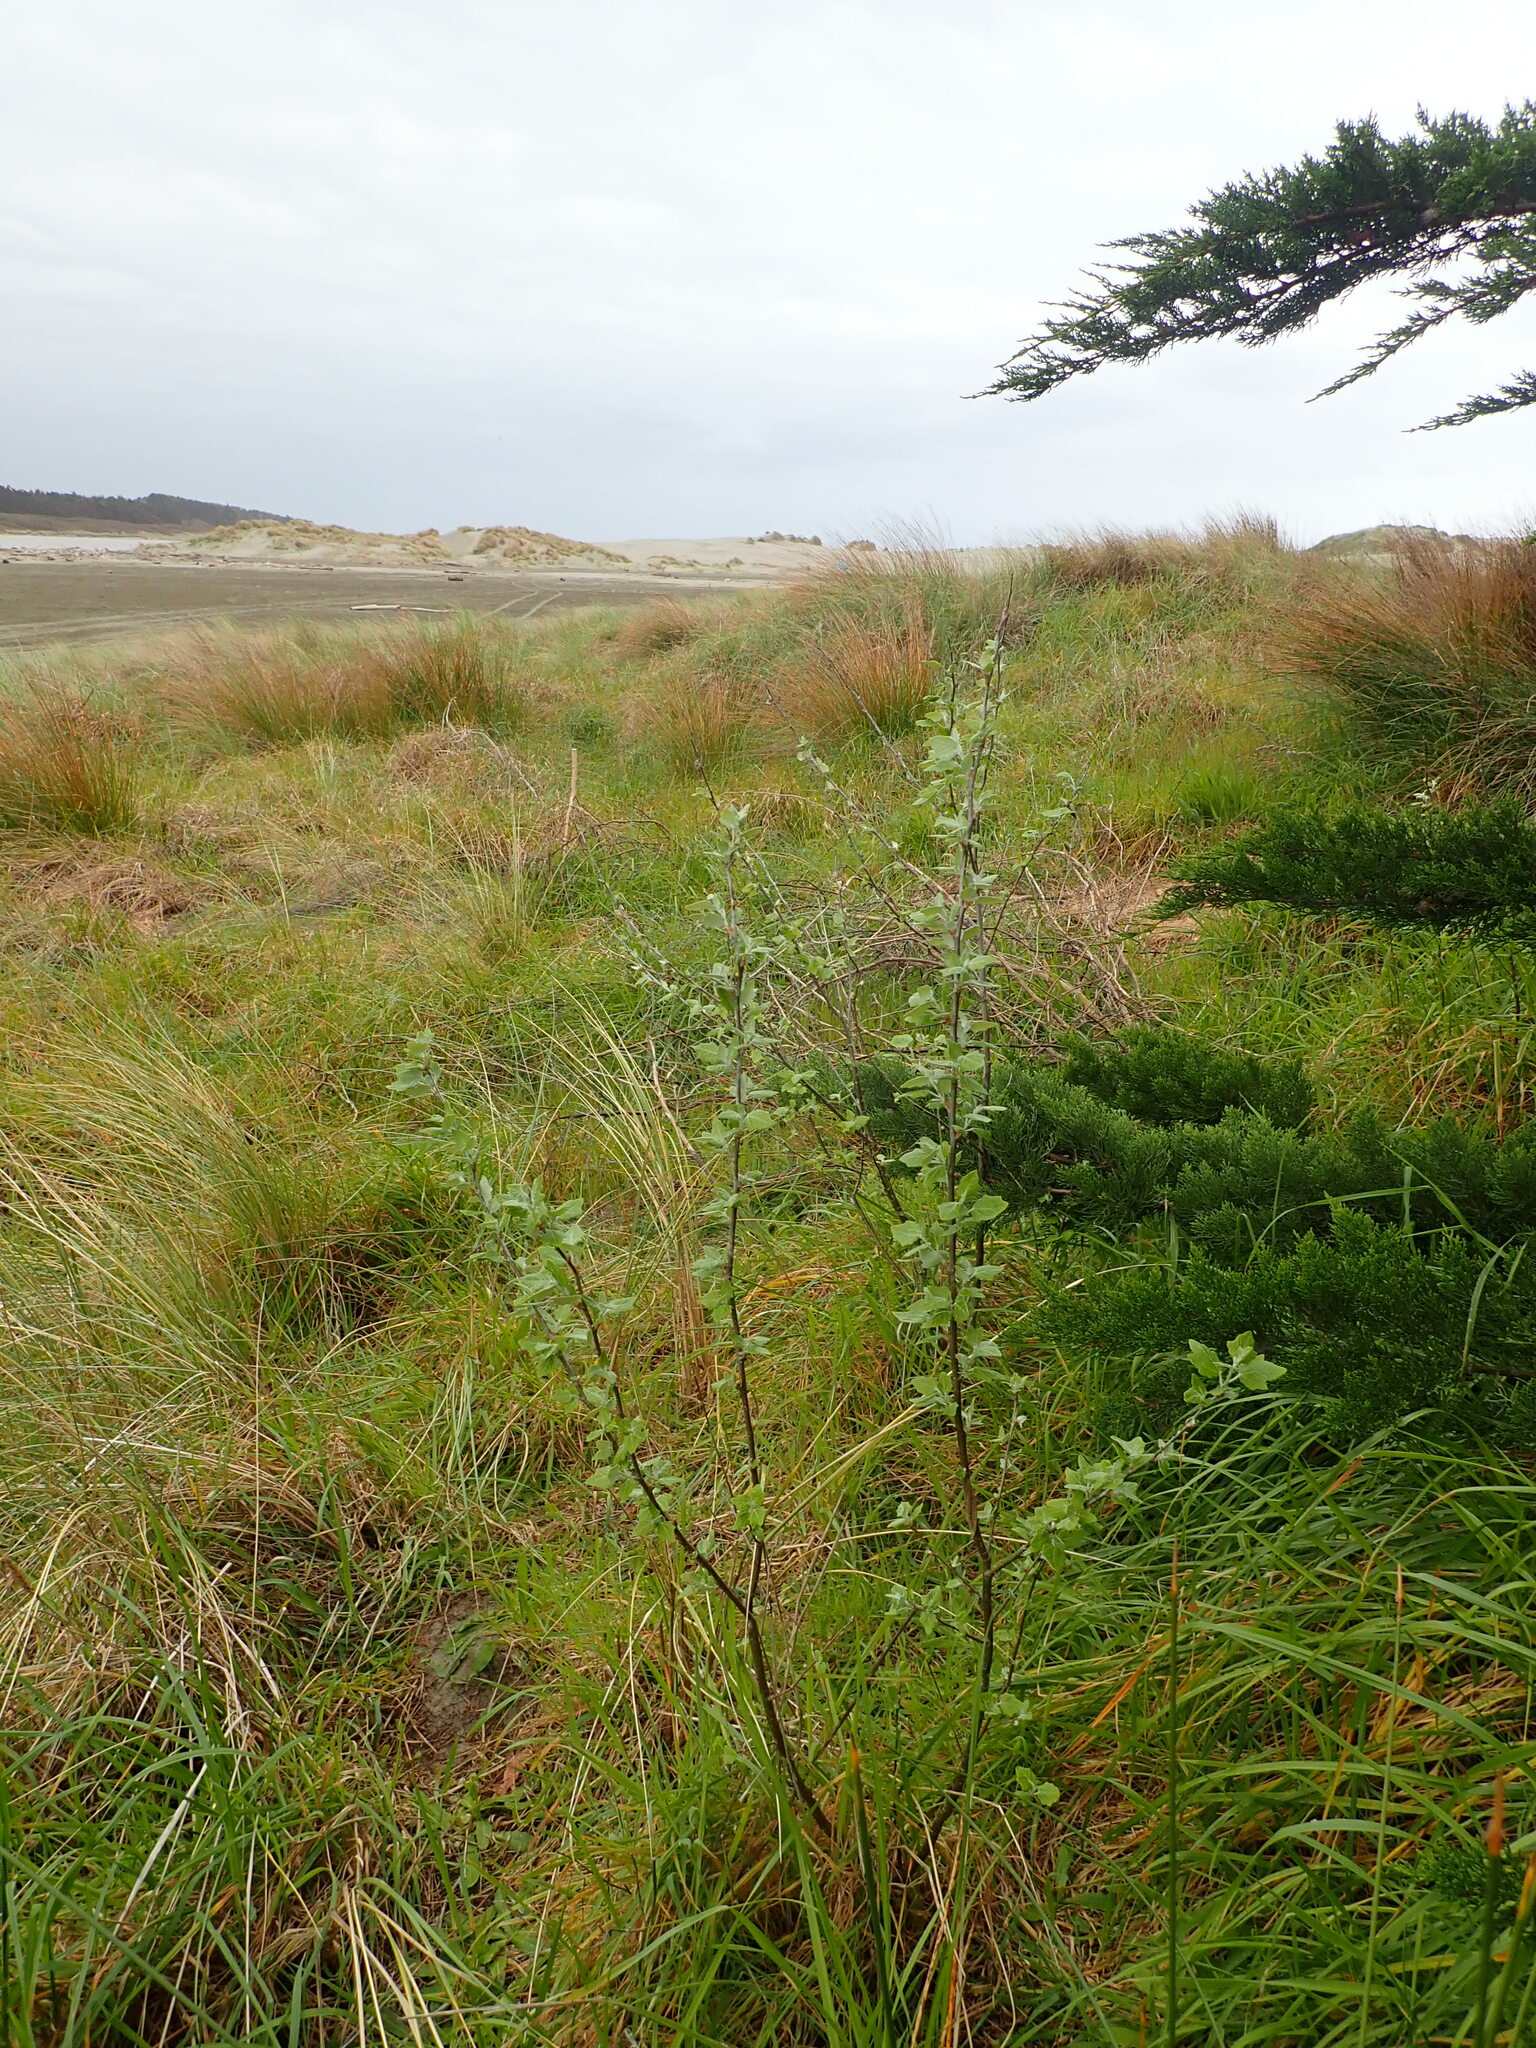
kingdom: Plantae
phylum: Tracheophyta
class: Magnoliopsida
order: Malpighiales
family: Salicaceae
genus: Populus
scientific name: Populus alba
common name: White poplar
